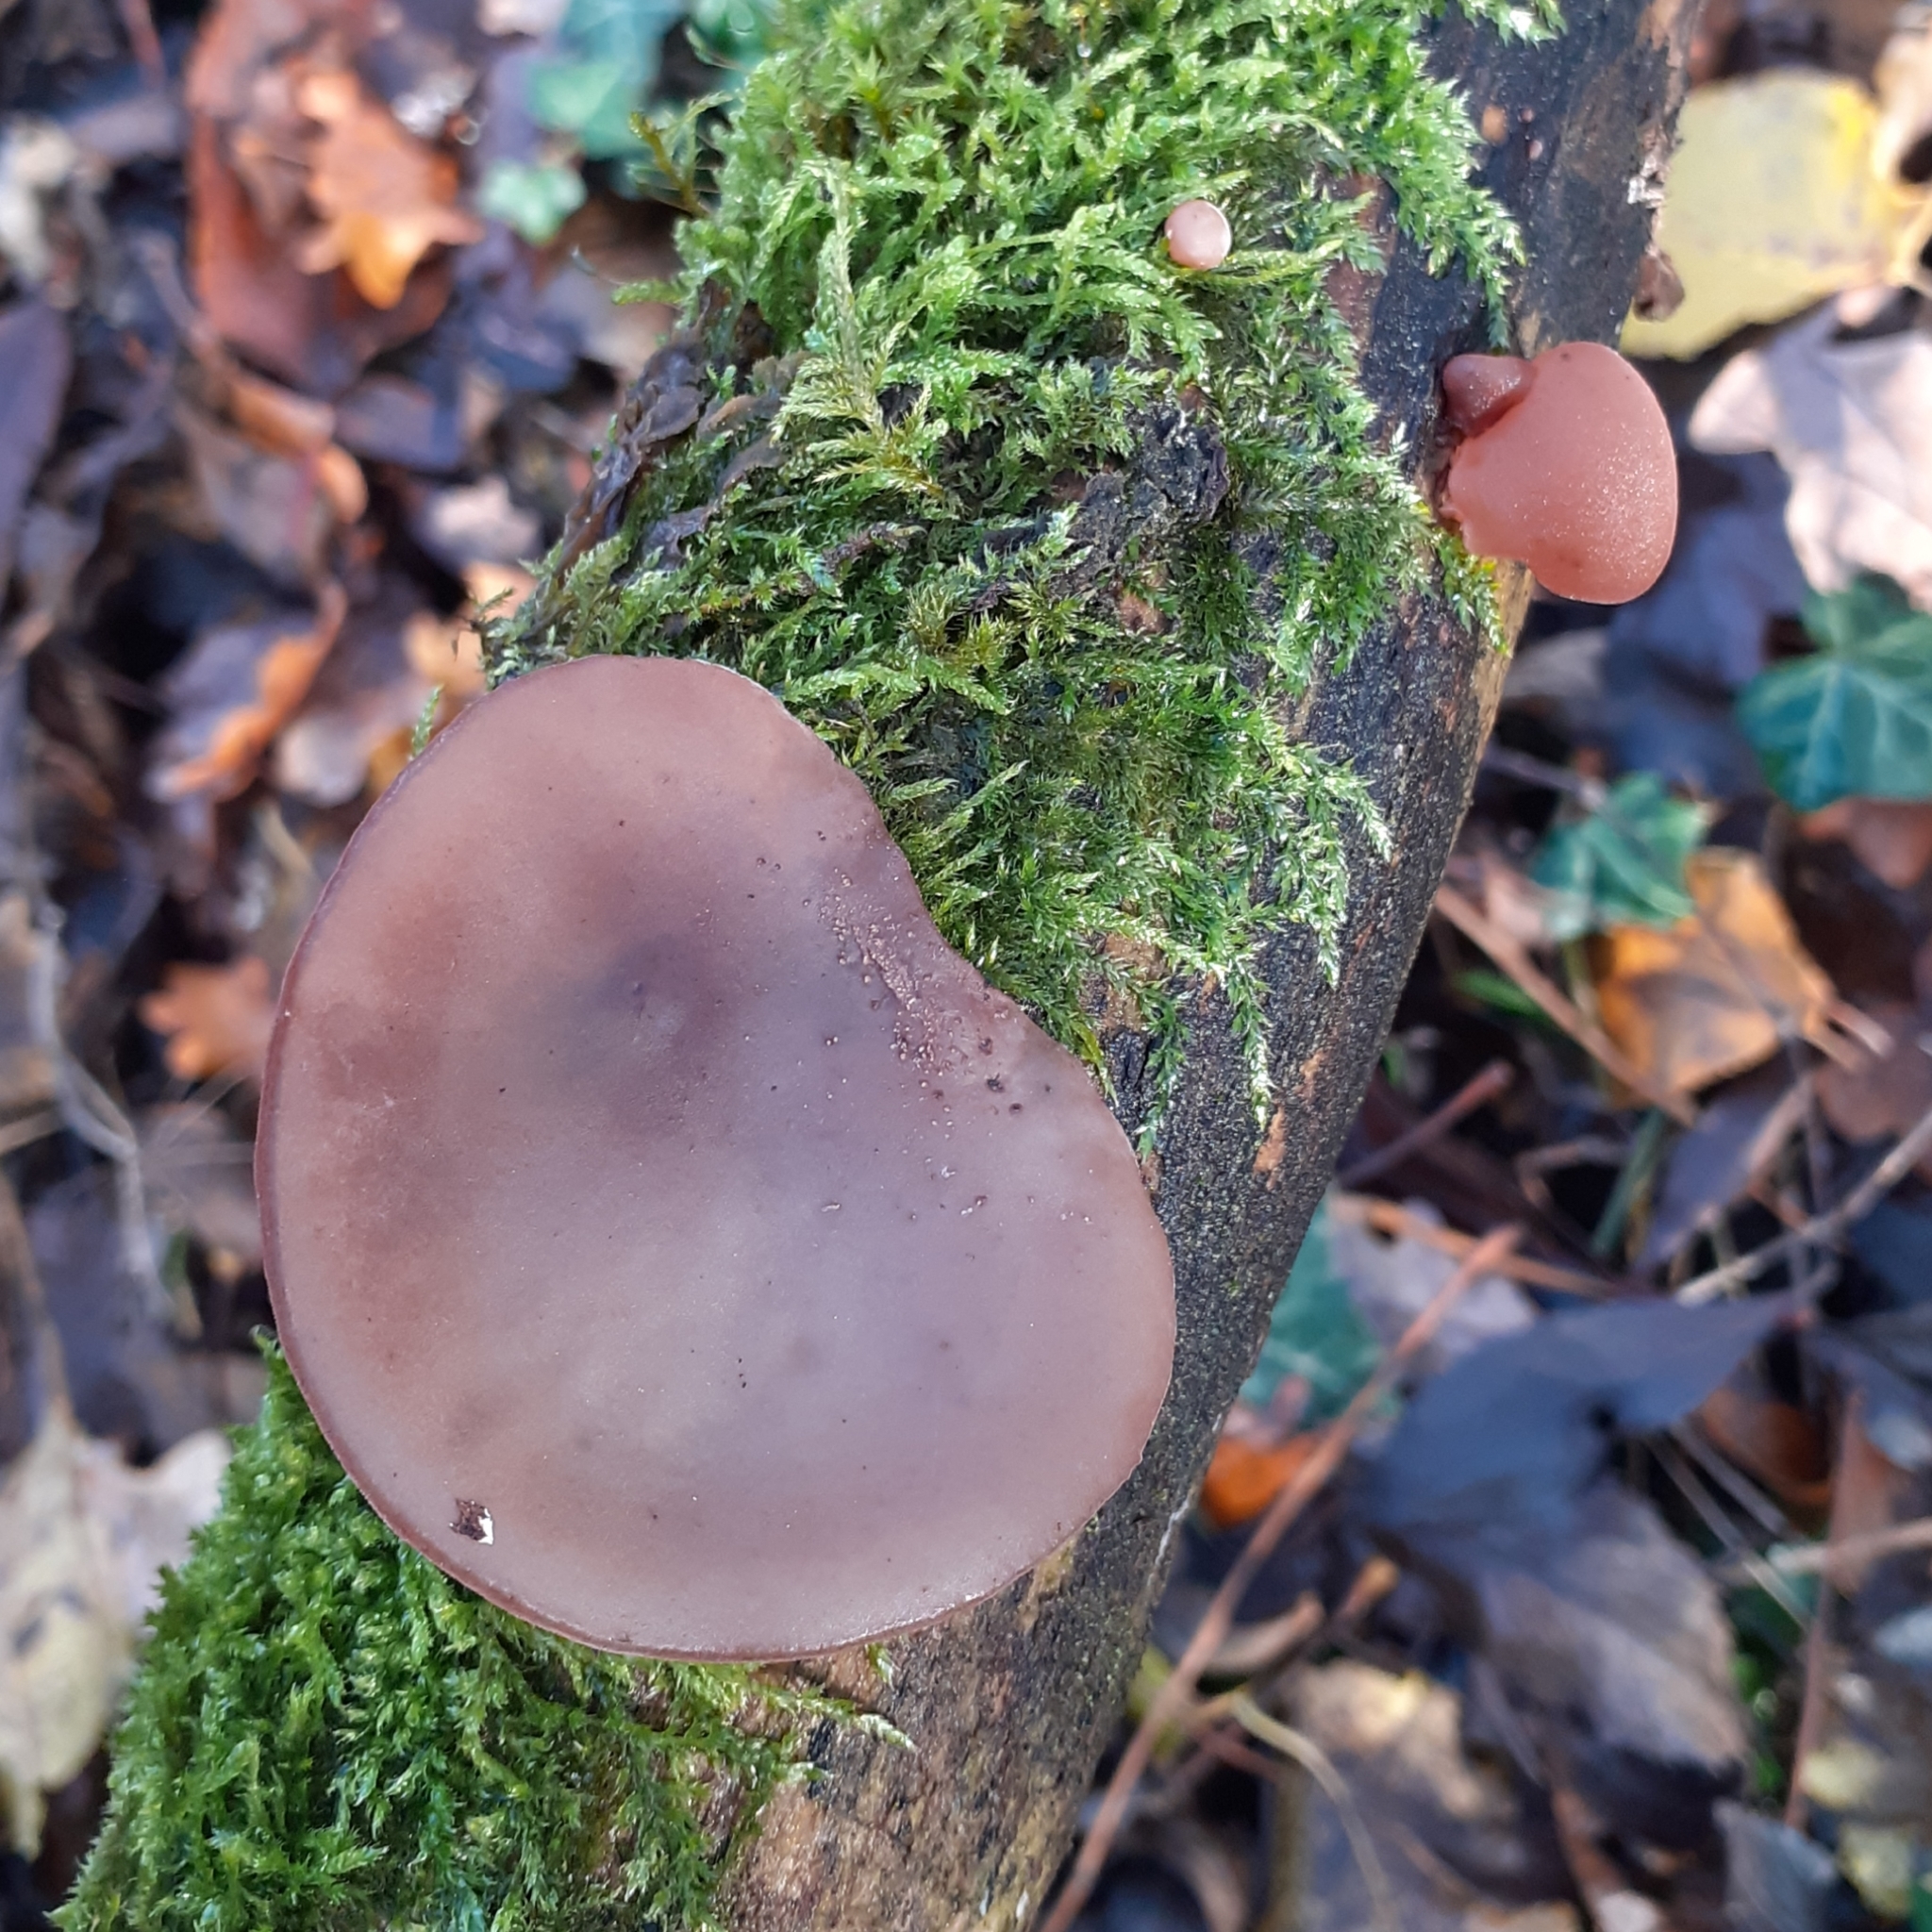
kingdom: Fungi
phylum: Basidiomycota
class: Agaricomycetes
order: Auriculariales
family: Auriculariaceae
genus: Auricularia
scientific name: Auricularia auricula-judae
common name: Jelly ear
